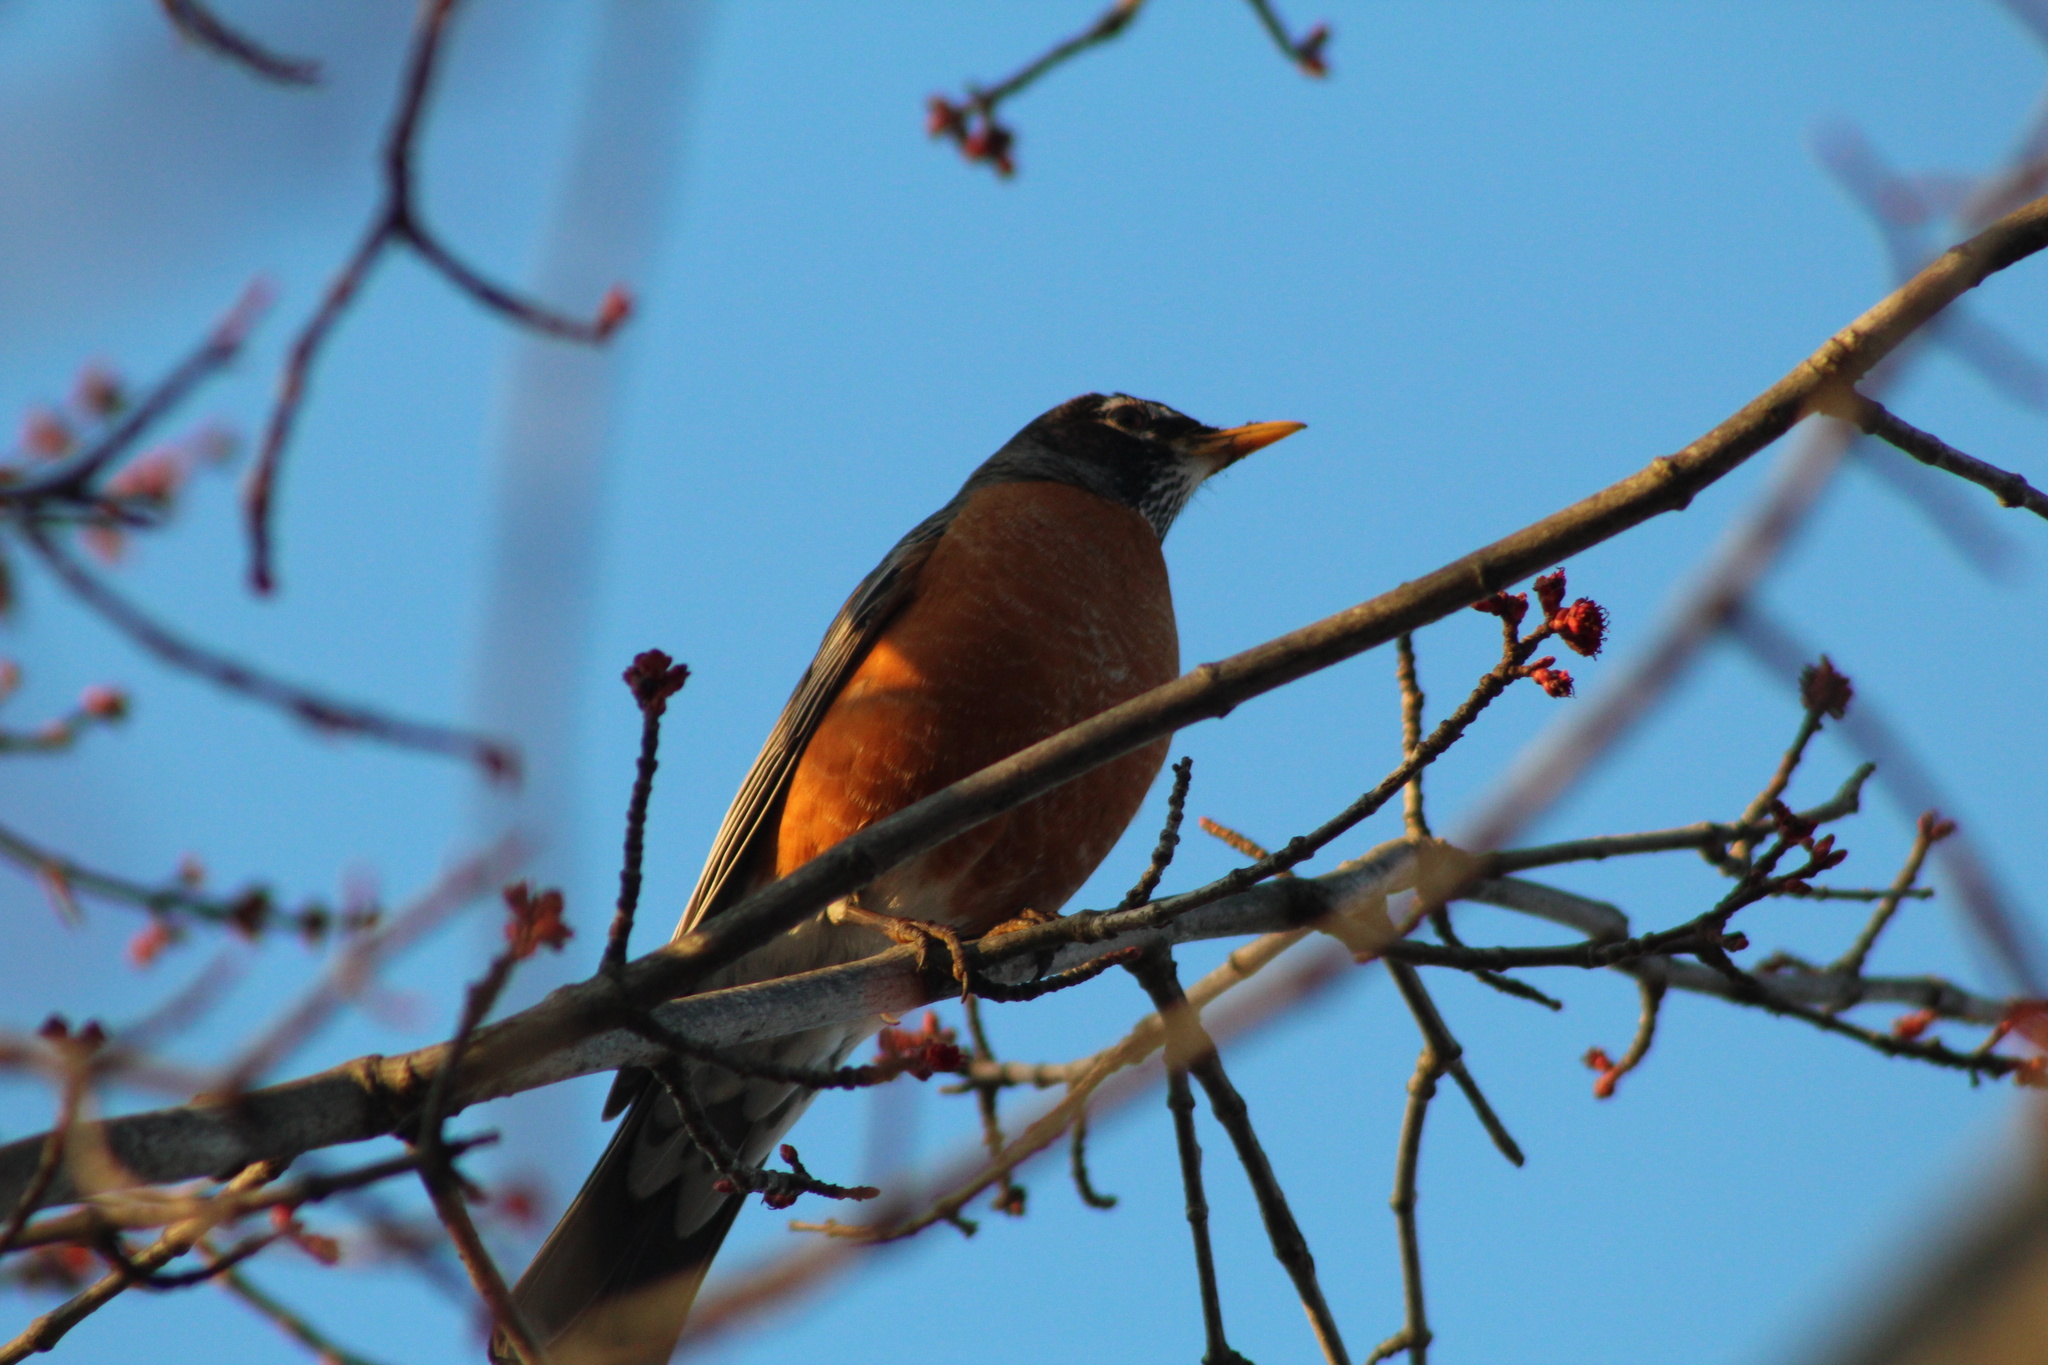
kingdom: Animalia
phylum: Chordata
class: Aves
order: Passeriformes
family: Turdidae
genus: Turdus
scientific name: Turdus migratorius
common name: American robin
